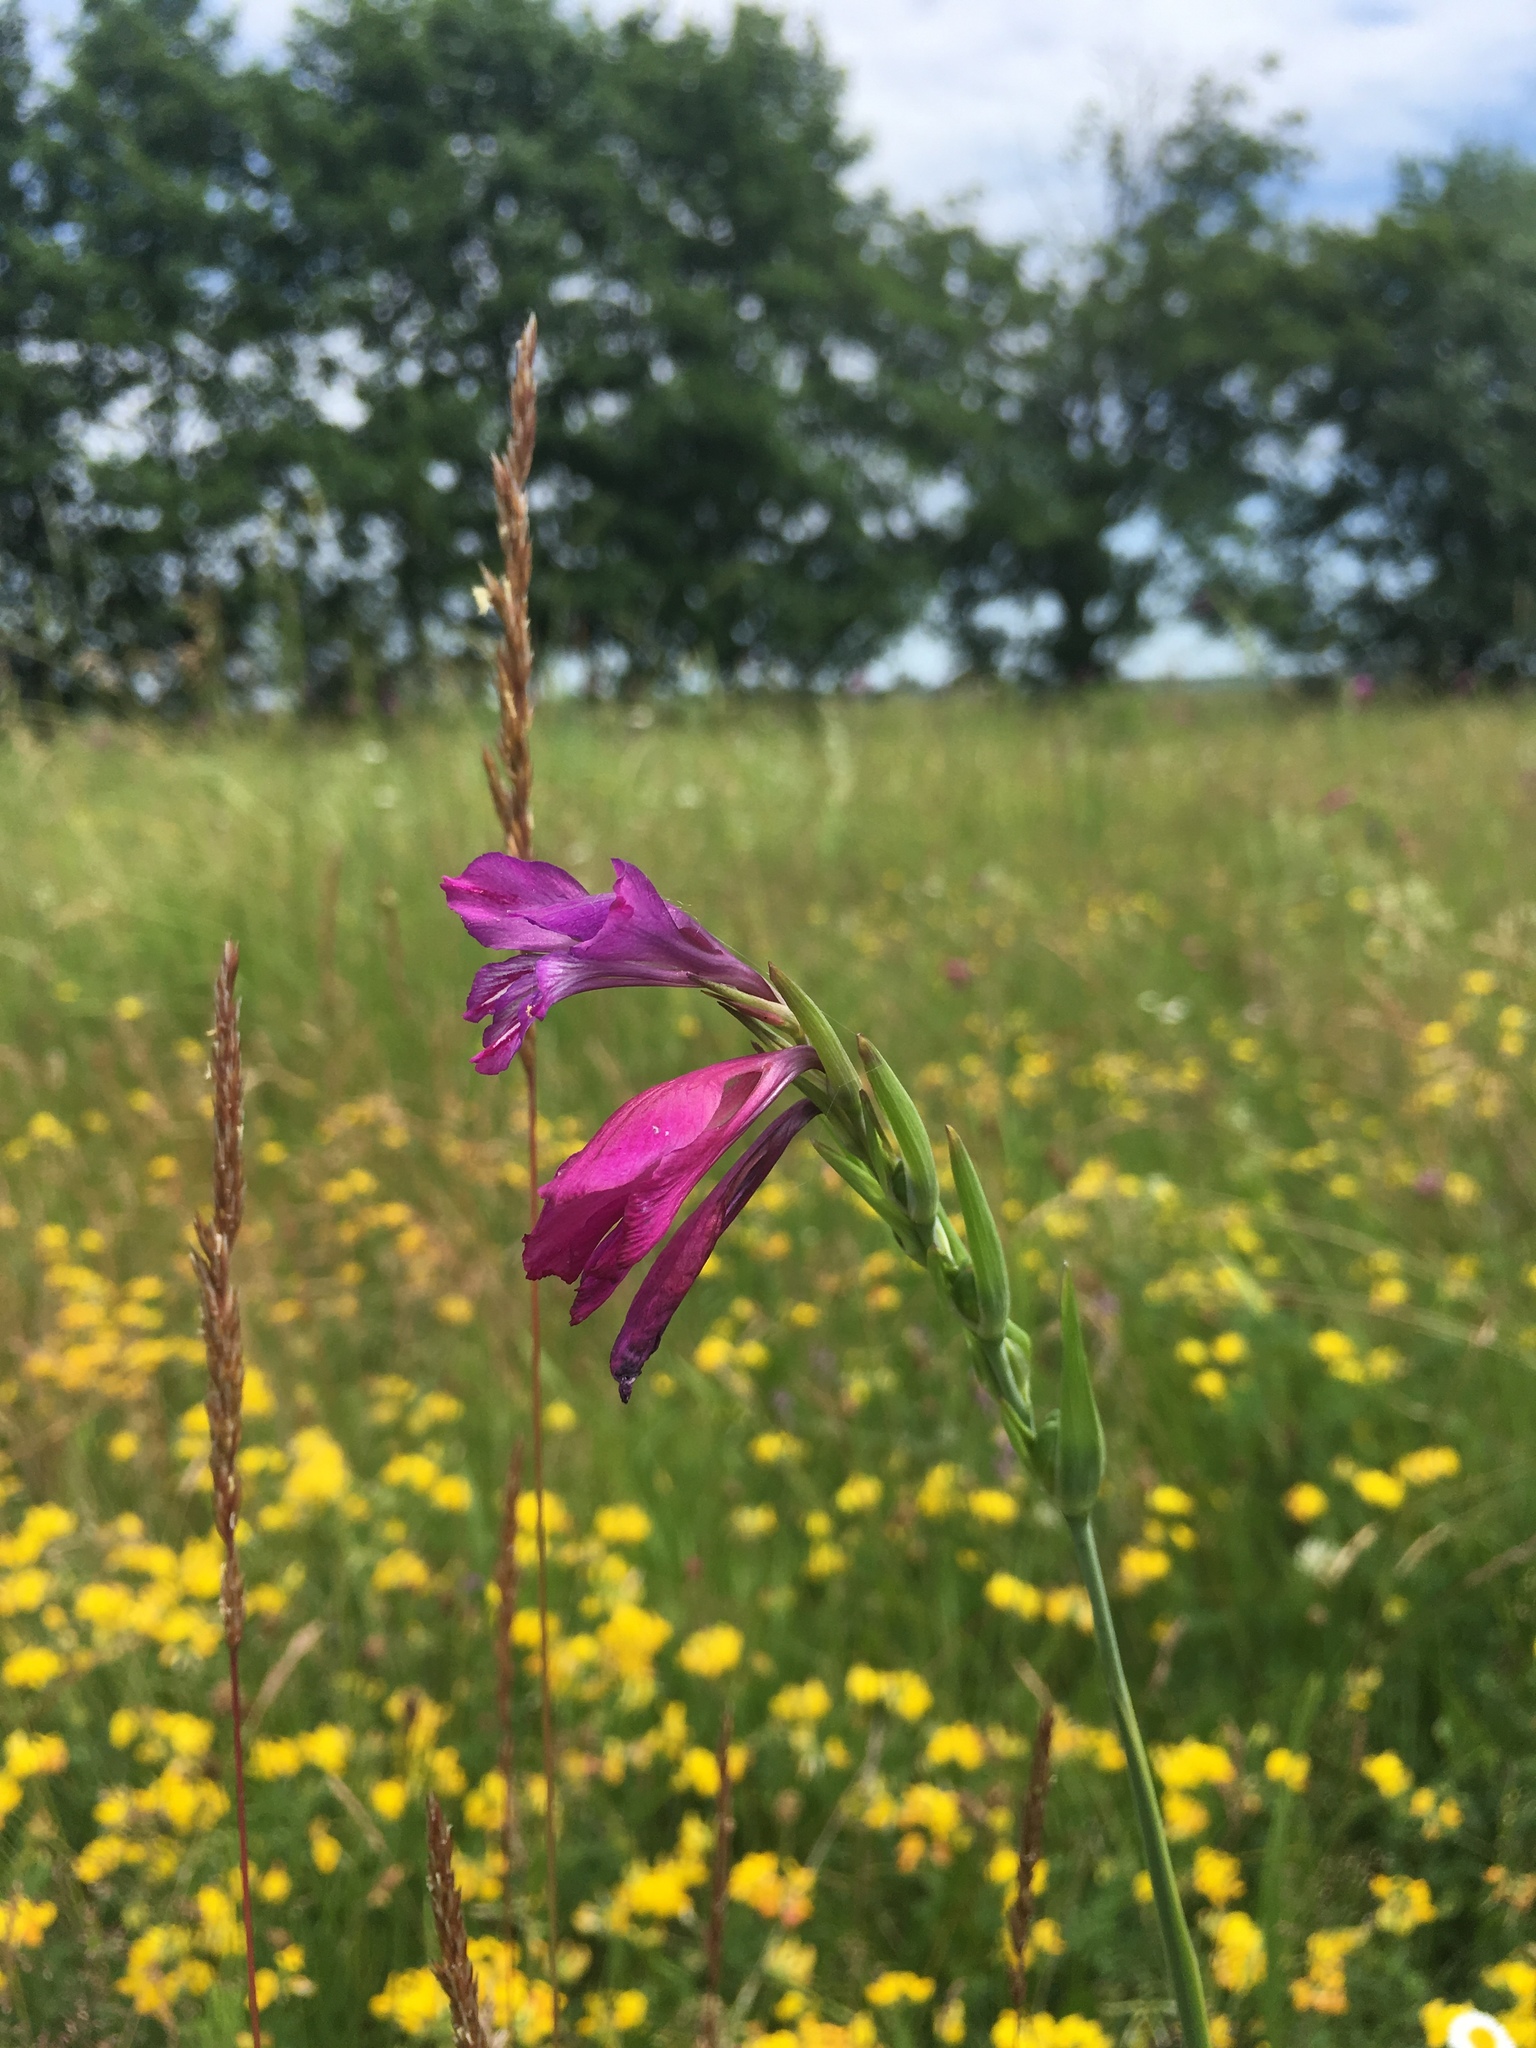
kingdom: Plantae
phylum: Tracheophyta
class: Liliopsida
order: Asparagales
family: Iridaceae
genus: Gladiolus
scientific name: Gladiolus tenuis
